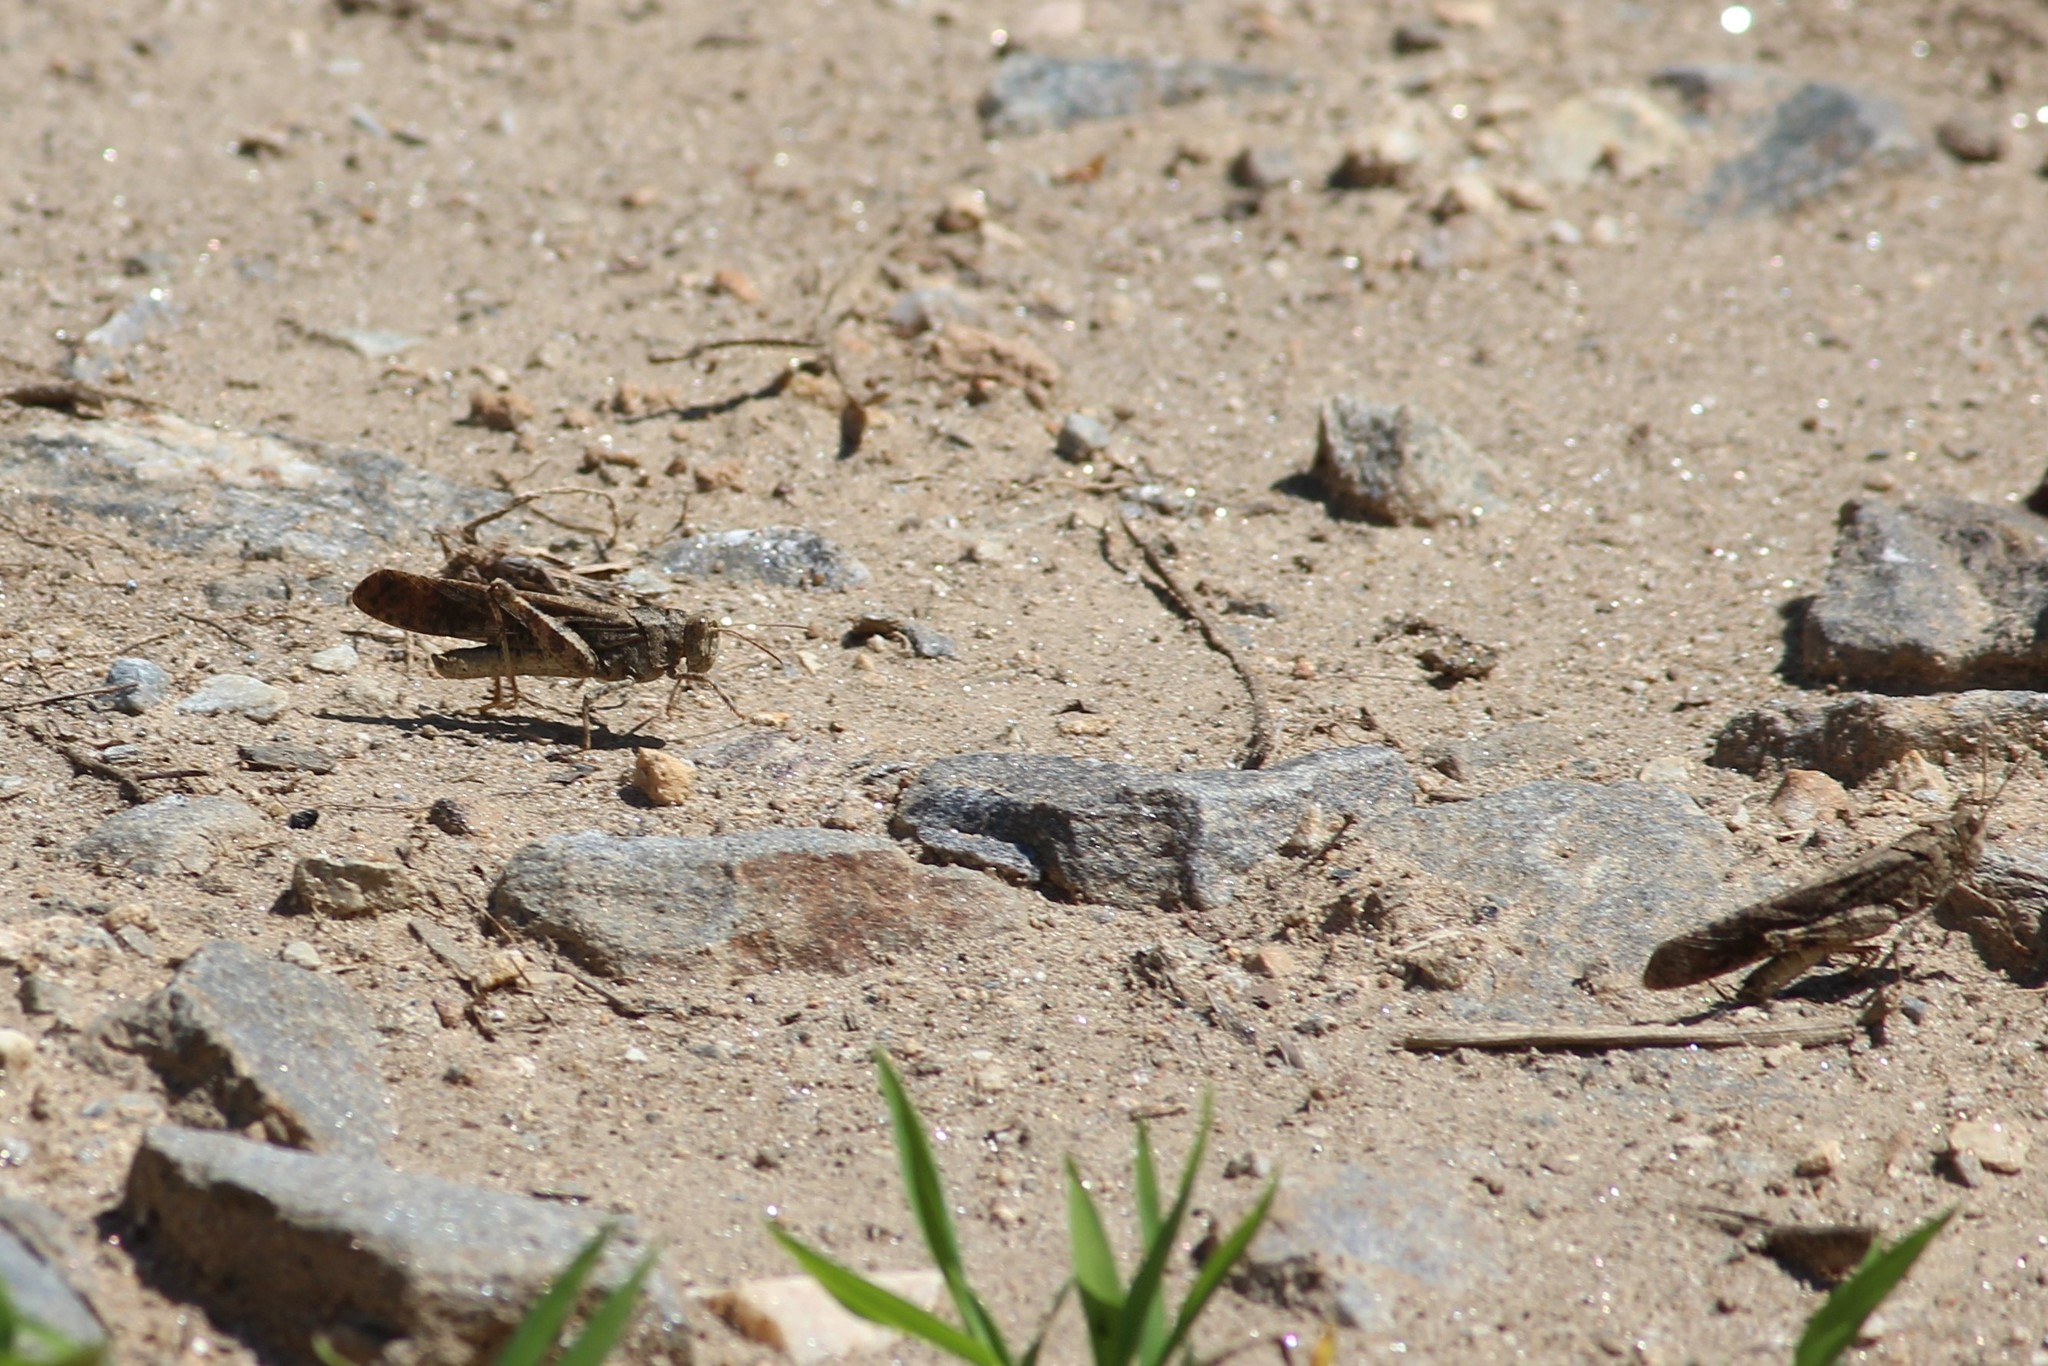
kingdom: Animalia
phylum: Arthropoda
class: Insecta
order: Orthoptera
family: Acrididae
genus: Dissosteira
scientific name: Dissosteira carolina
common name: Carolina grasshopper
